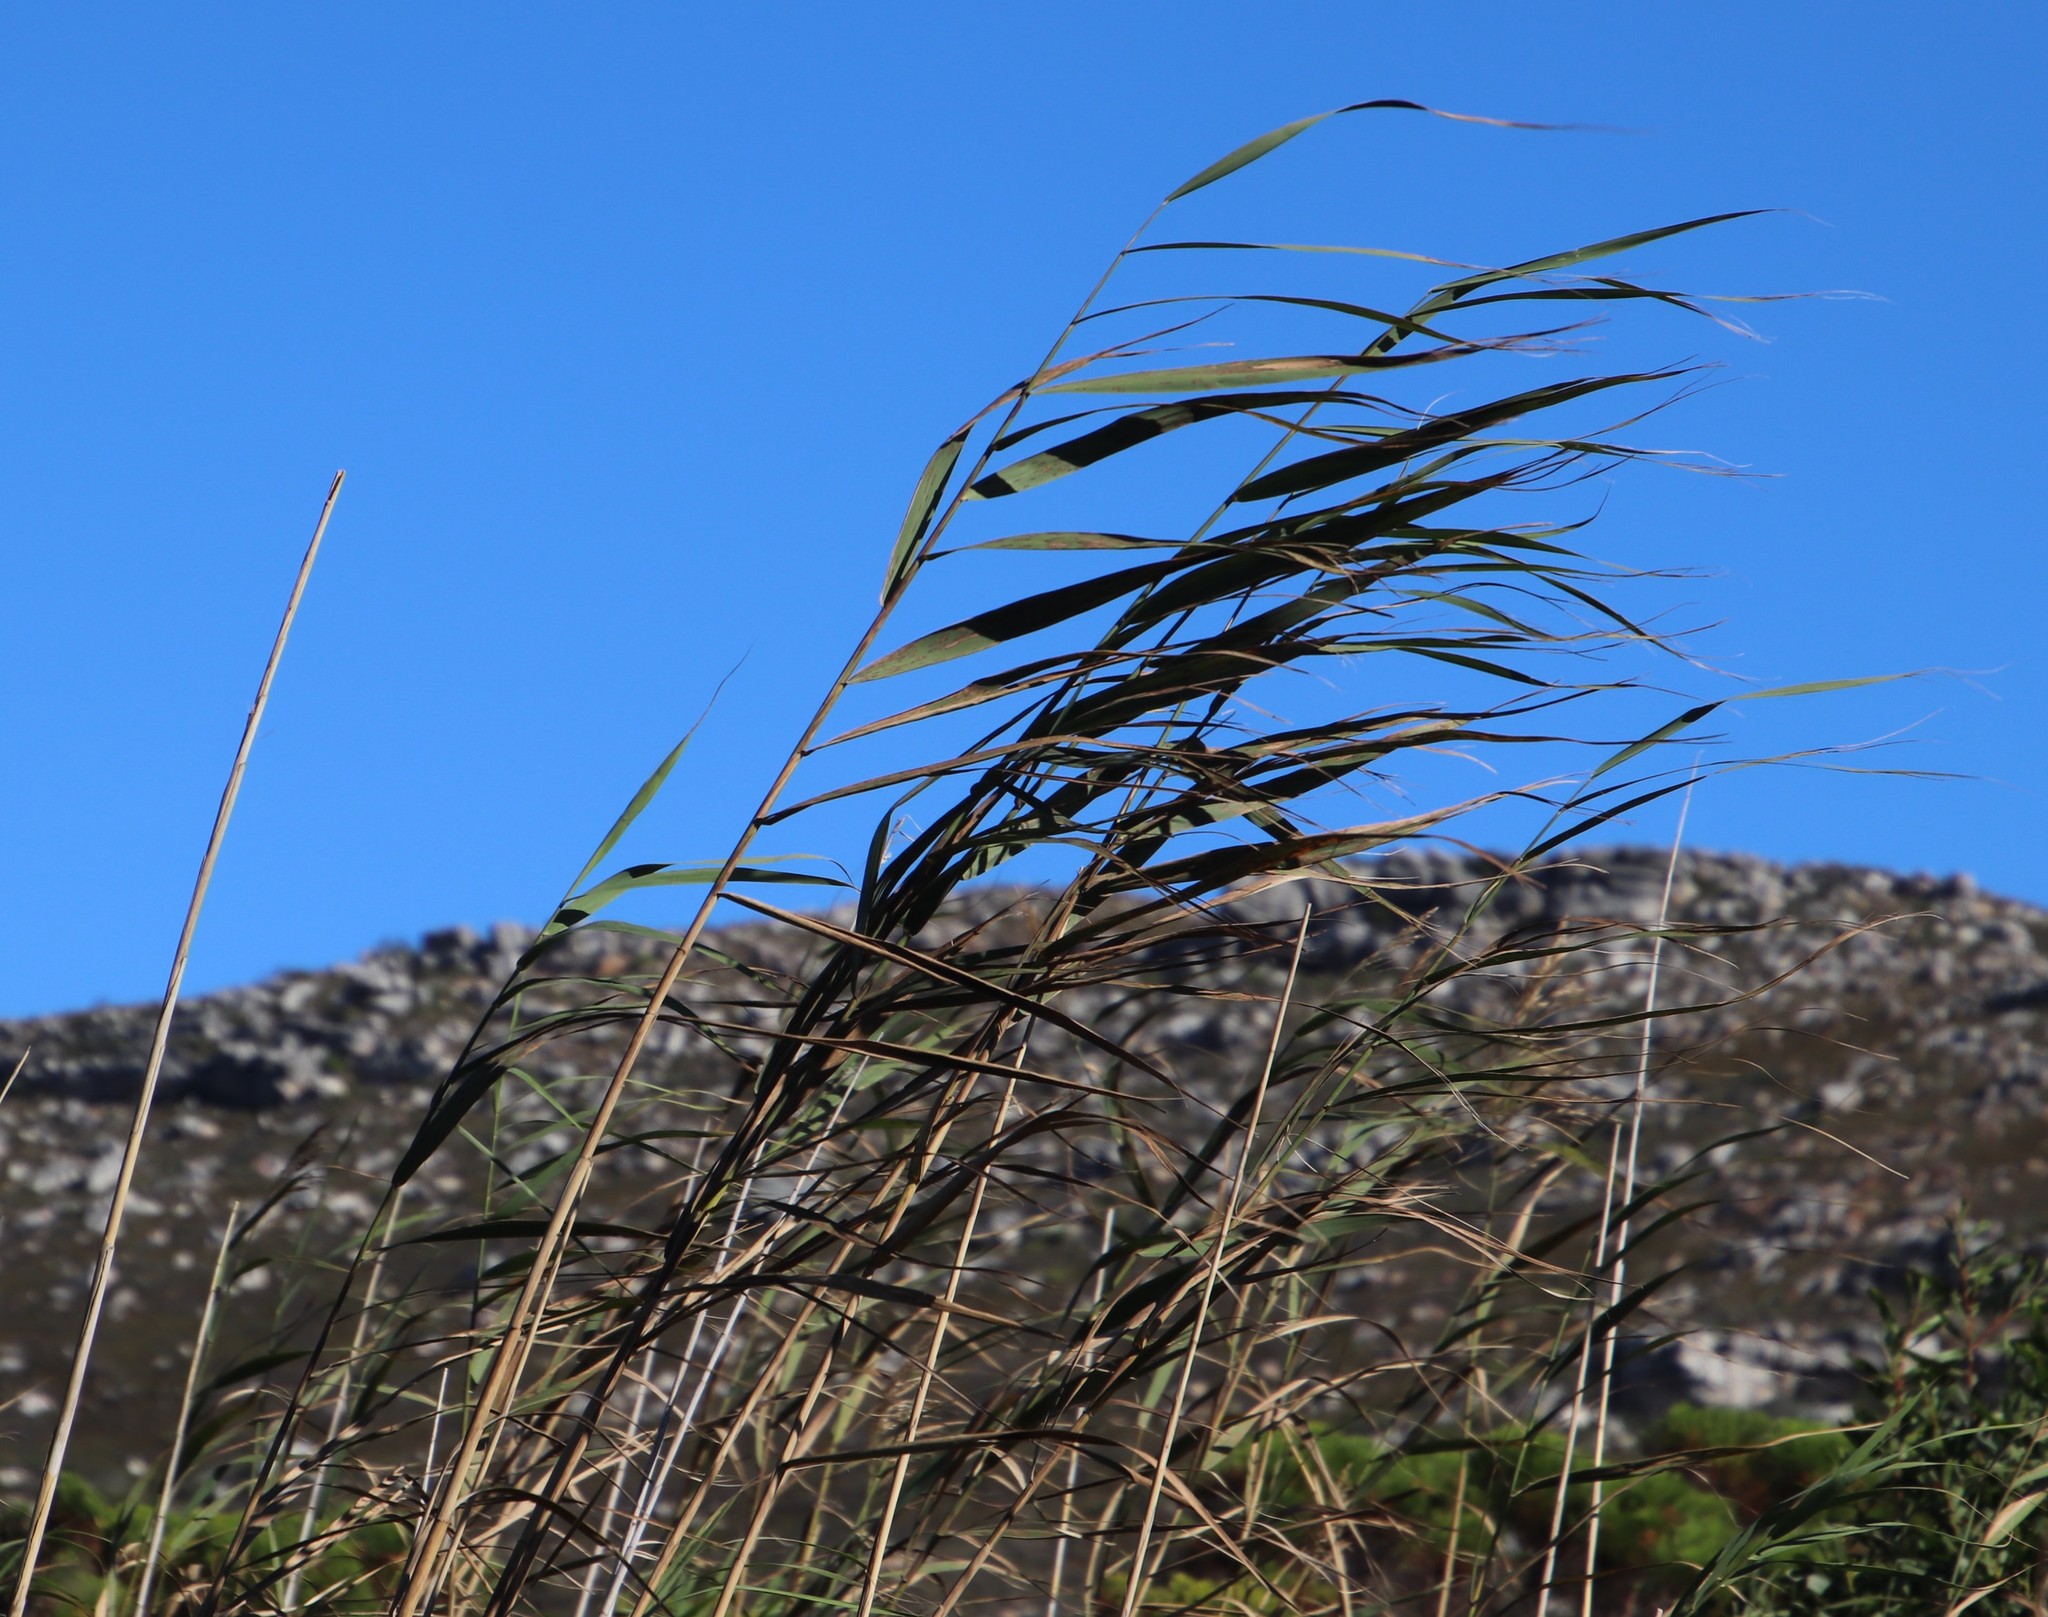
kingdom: Plantae
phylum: Tracheophyta
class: Liliopsida
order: Poales
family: Poaceae
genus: Phragmites
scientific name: Phragmites australis
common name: Common reed
